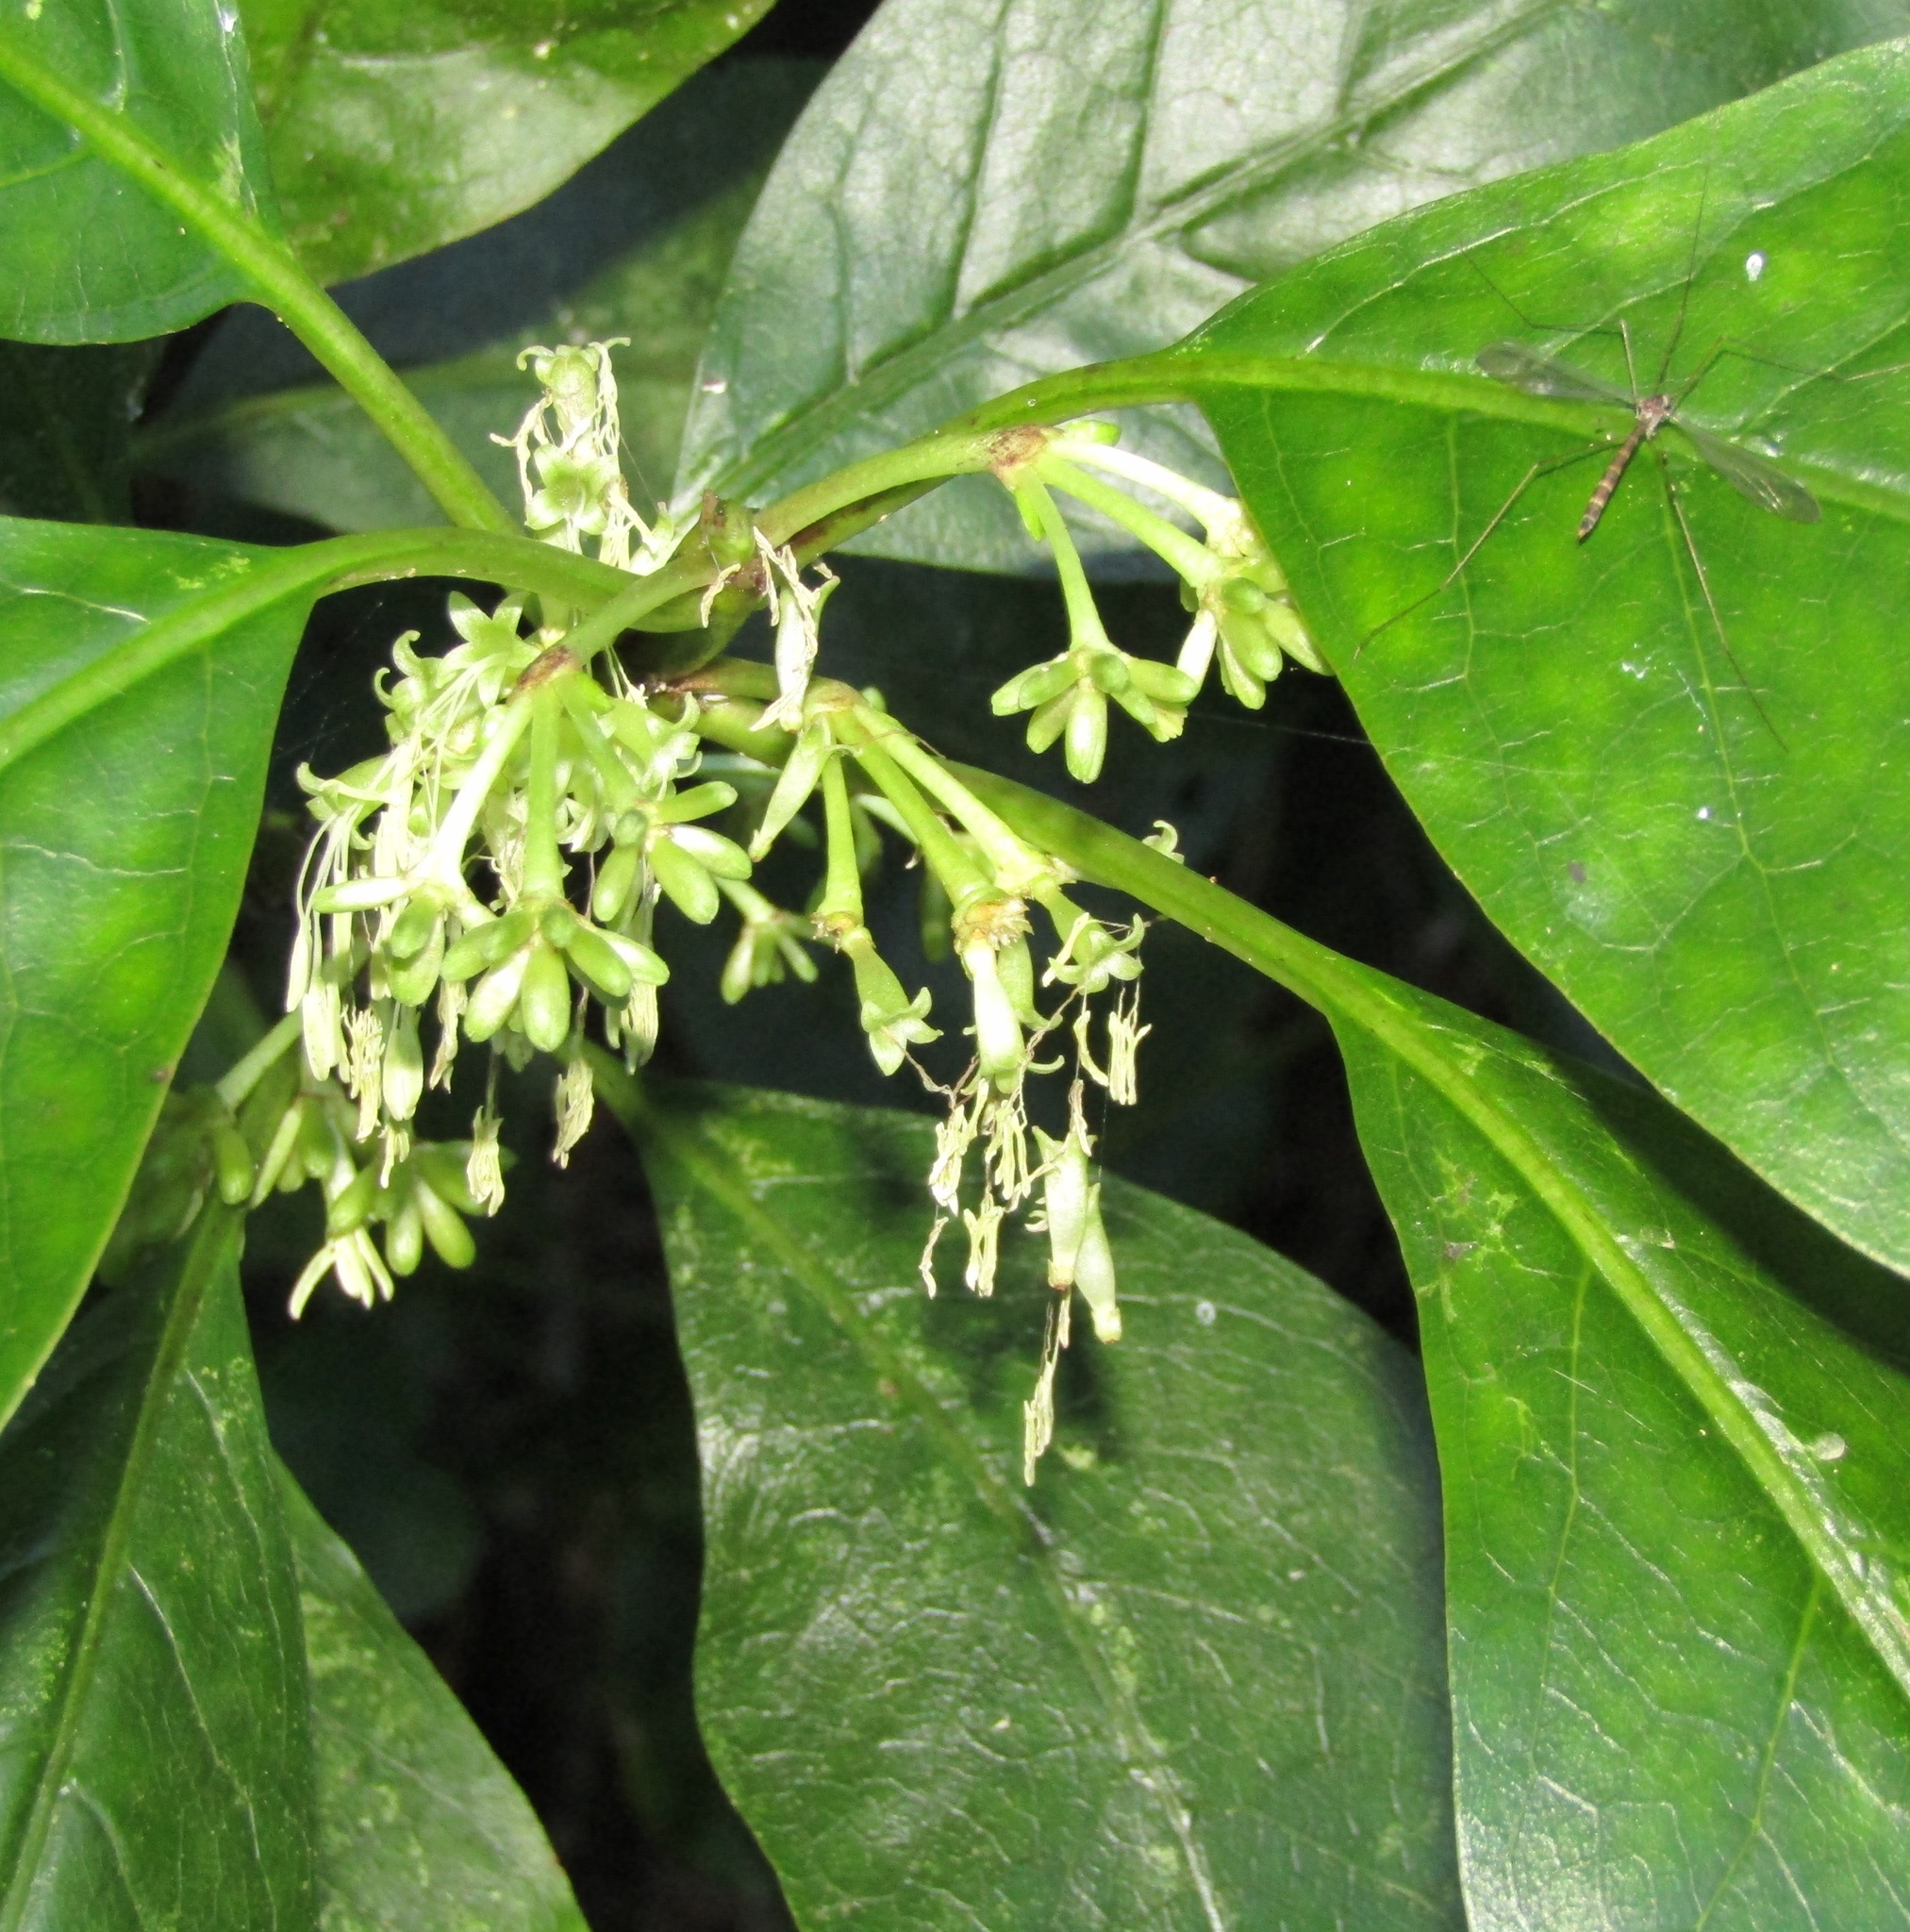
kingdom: Plantae
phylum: Tracheophyta
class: Magnoliopsida
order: Gentianales
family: Rubiaceae
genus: Coprosma
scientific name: Coprosma autumnalis
